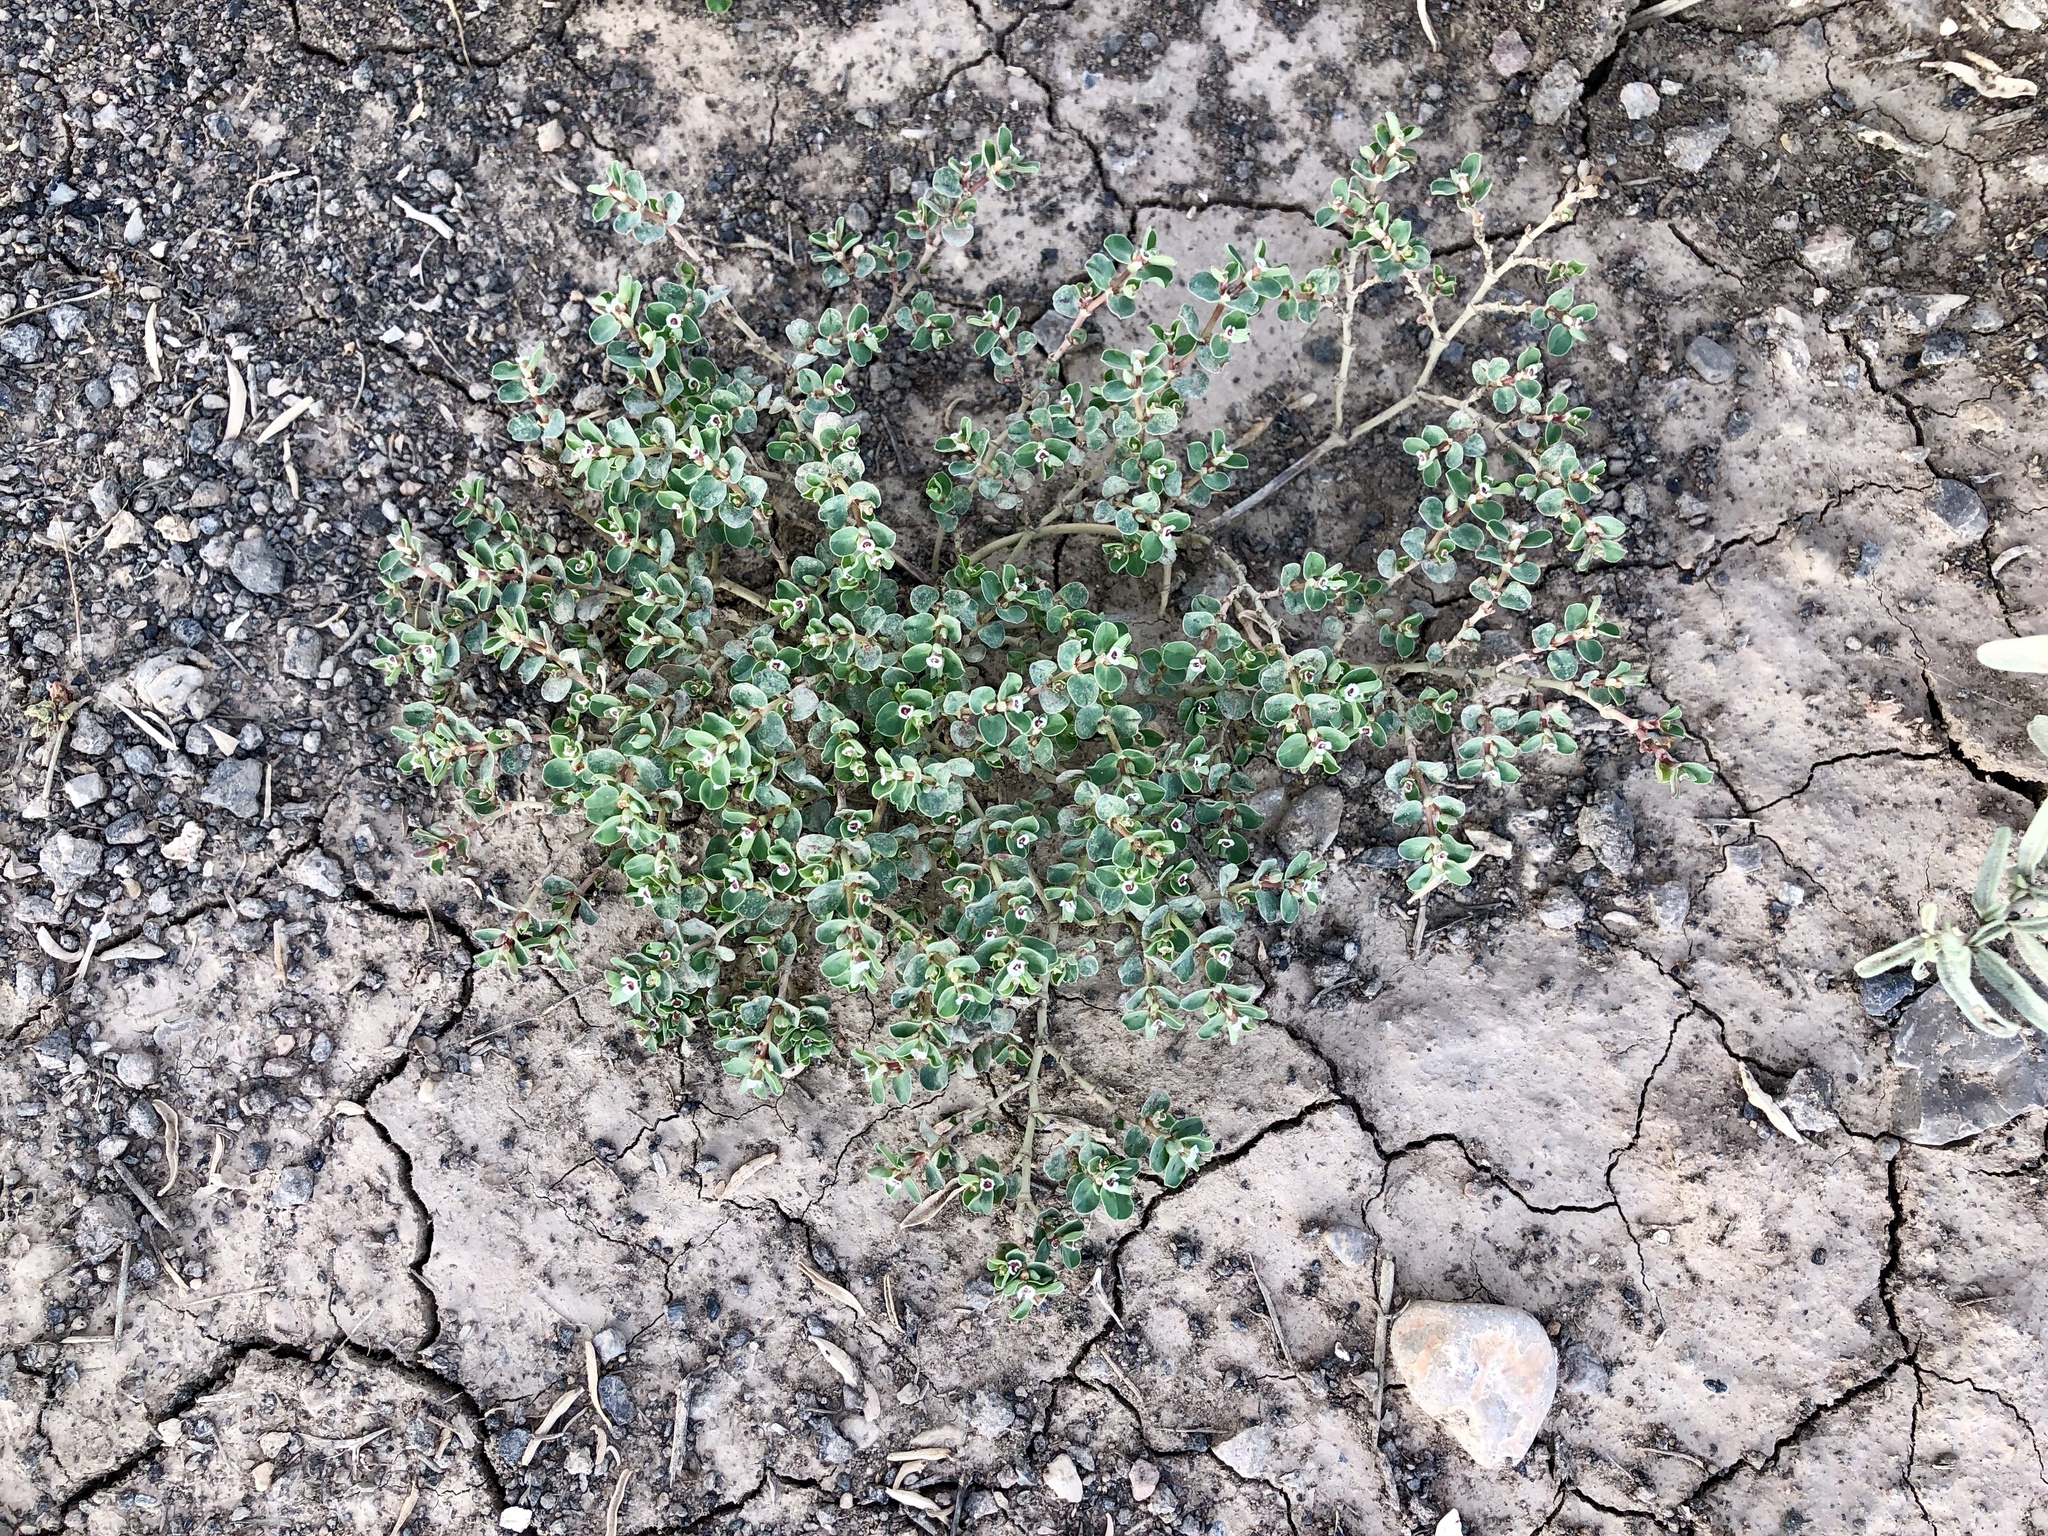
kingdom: Plantae
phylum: Tracheophyta
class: Magnoliopsida
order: Malpighiales
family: Euphorbiaceae
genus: Euphorbia
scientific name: Euphorbia albomarginata
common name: Whitemargin sandmat
